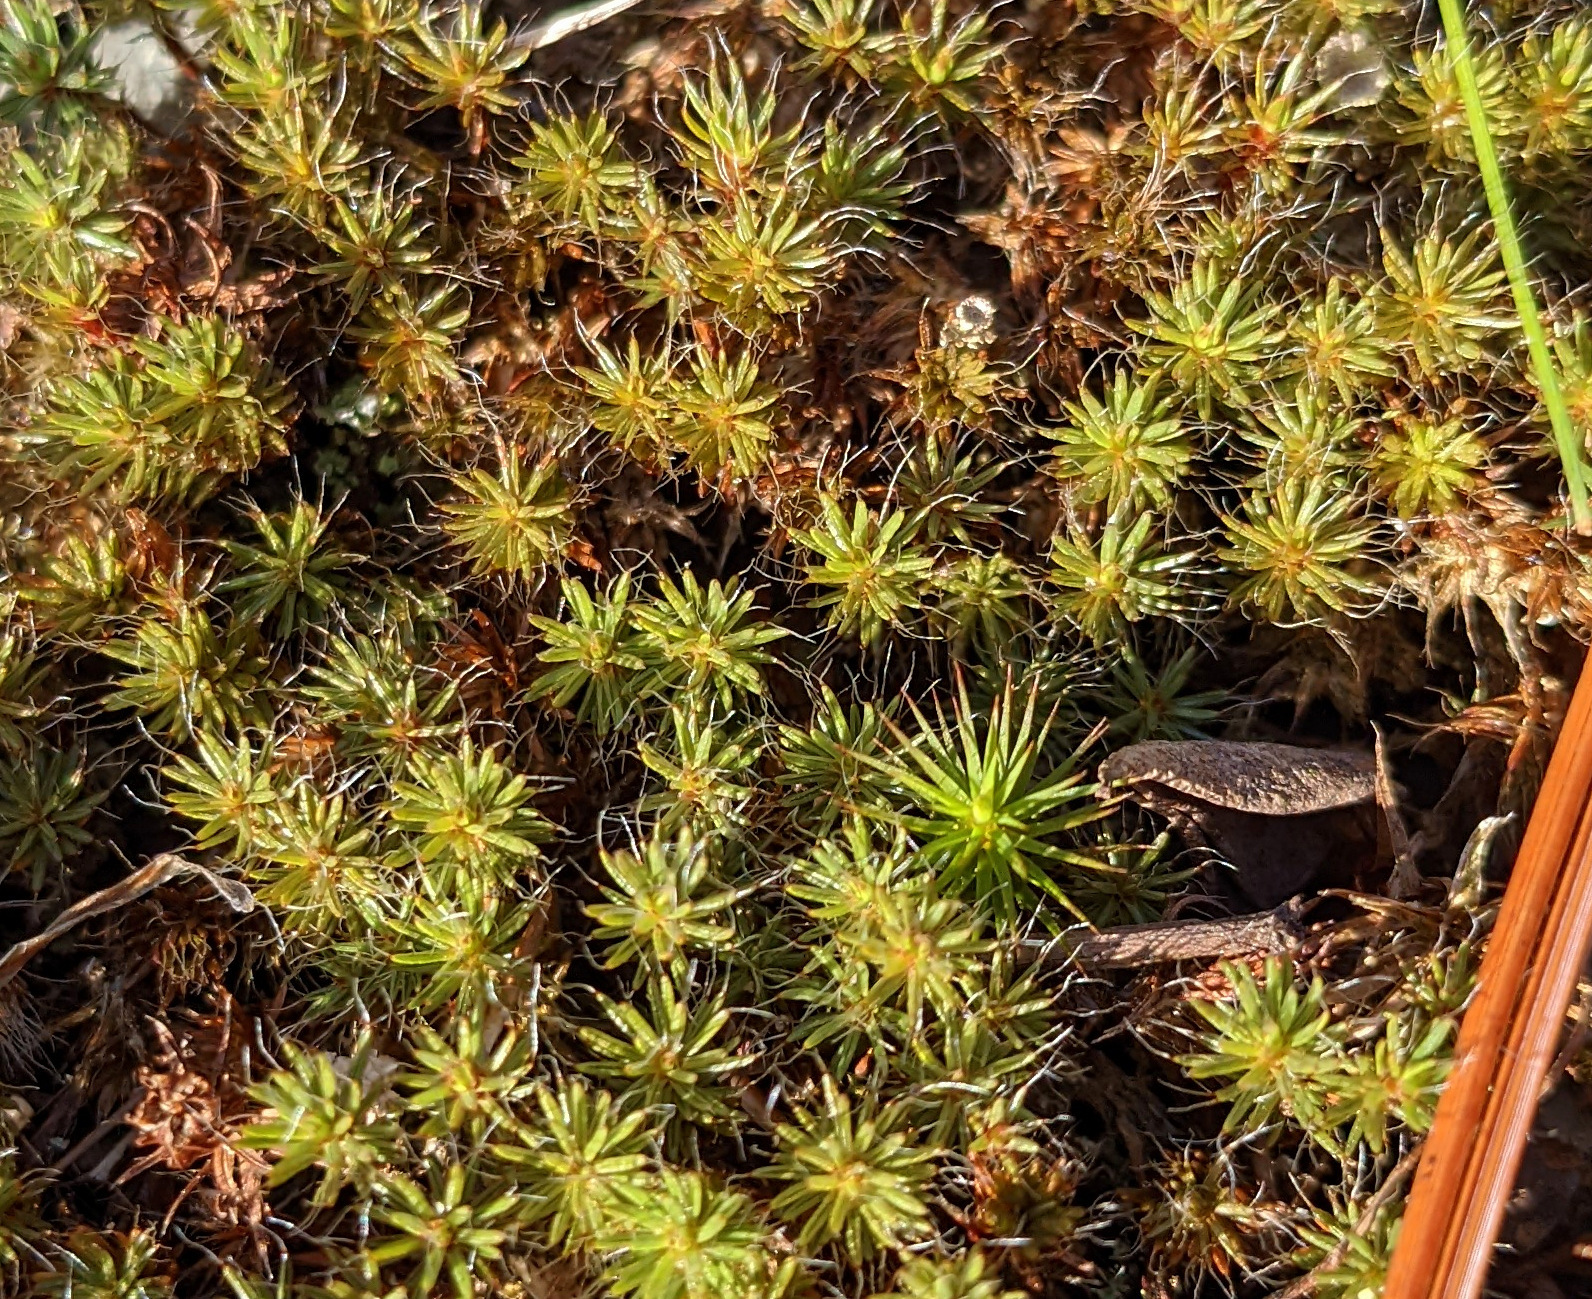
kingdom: Plantae
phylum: Bryophyta
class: Polytrichopsida
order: Polytrichales
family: Polytrichaceae
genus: Polytrichum
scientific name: Polytrichum piliferum
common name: Bristly haircap
